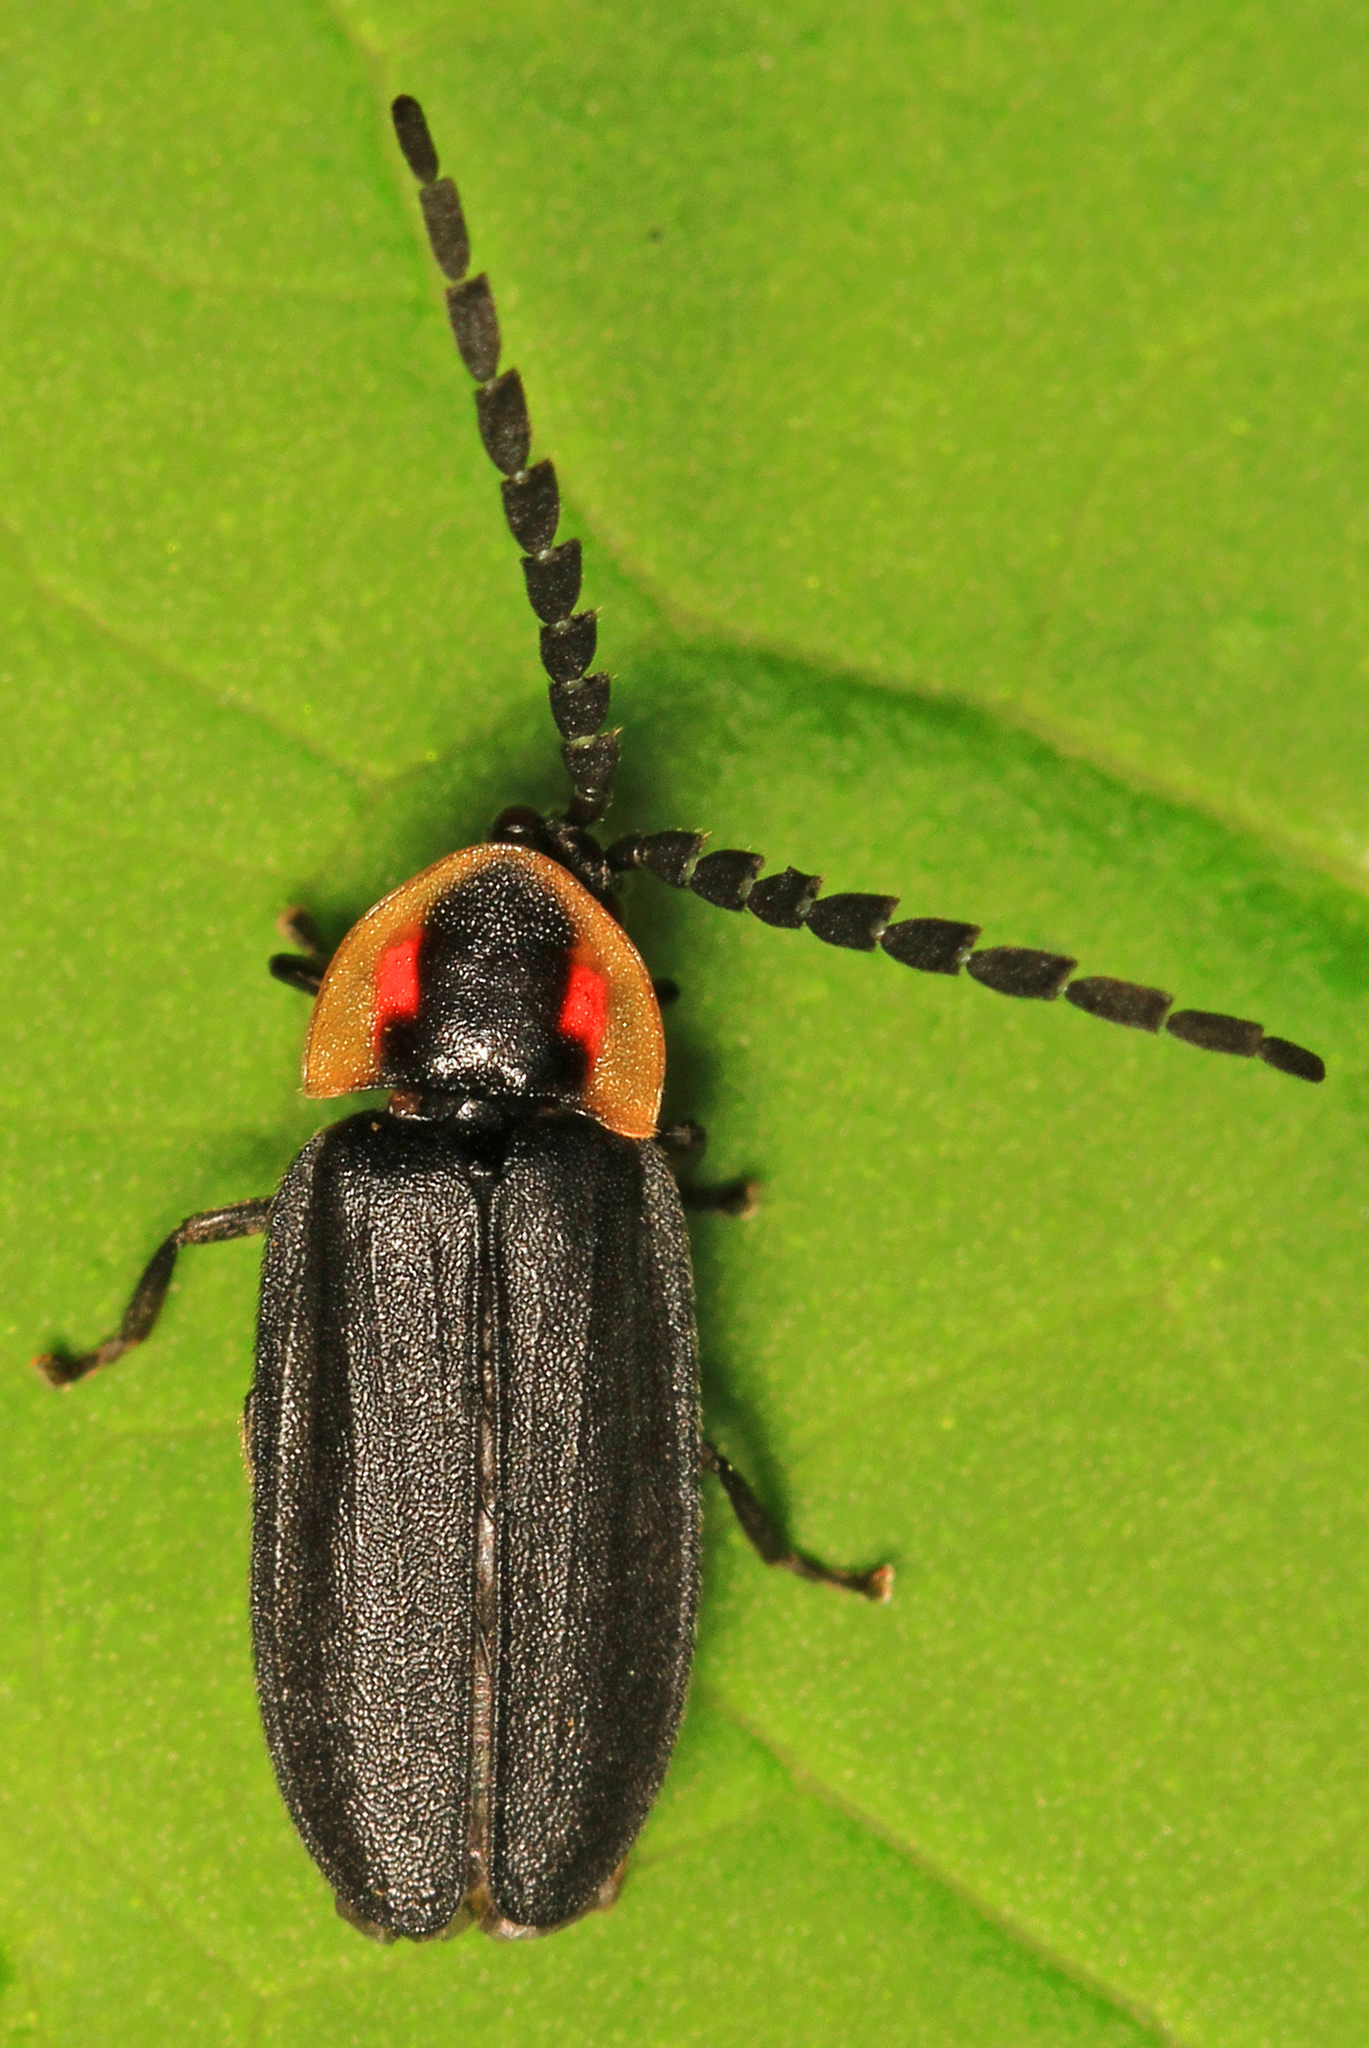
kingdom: Animalia
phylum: Arthropoda
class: Insecta
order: Coleoptera
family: Lampyridae
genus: Lucidota
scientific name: Lucidota atra
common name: Black firefly
